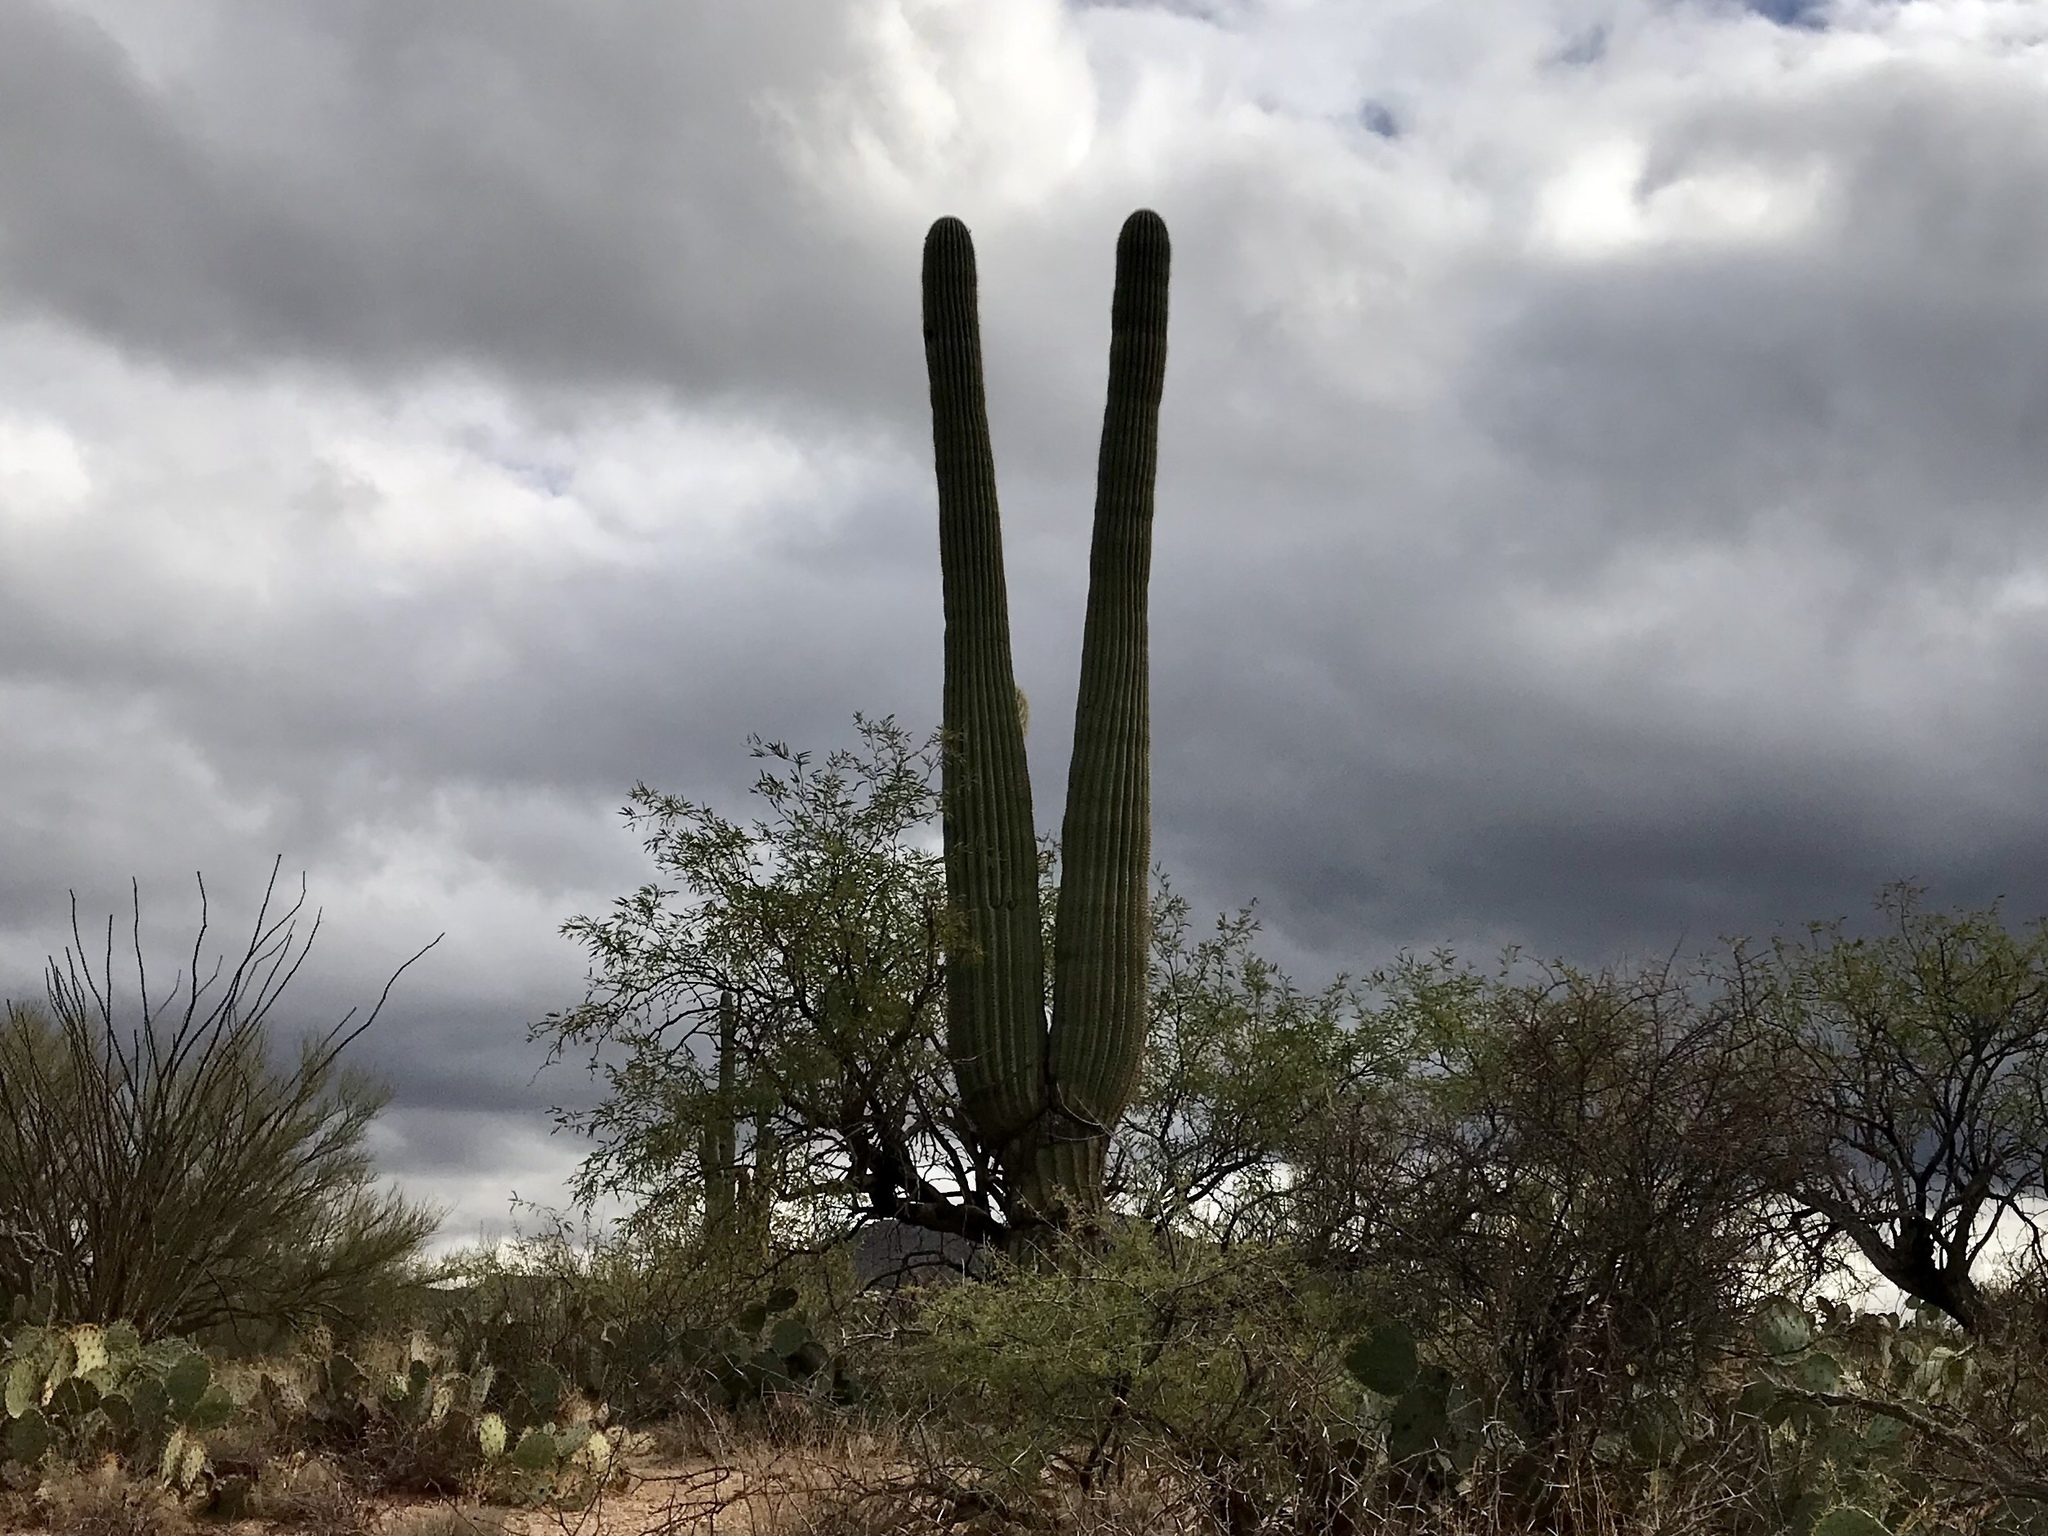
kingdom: Plantae
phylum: Tracheophyta
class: Magnoliopsida
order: Caryophyllales
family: Cactaceae
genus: Carnegiea
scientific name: Carnegiea gigantea
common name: Saguaro
